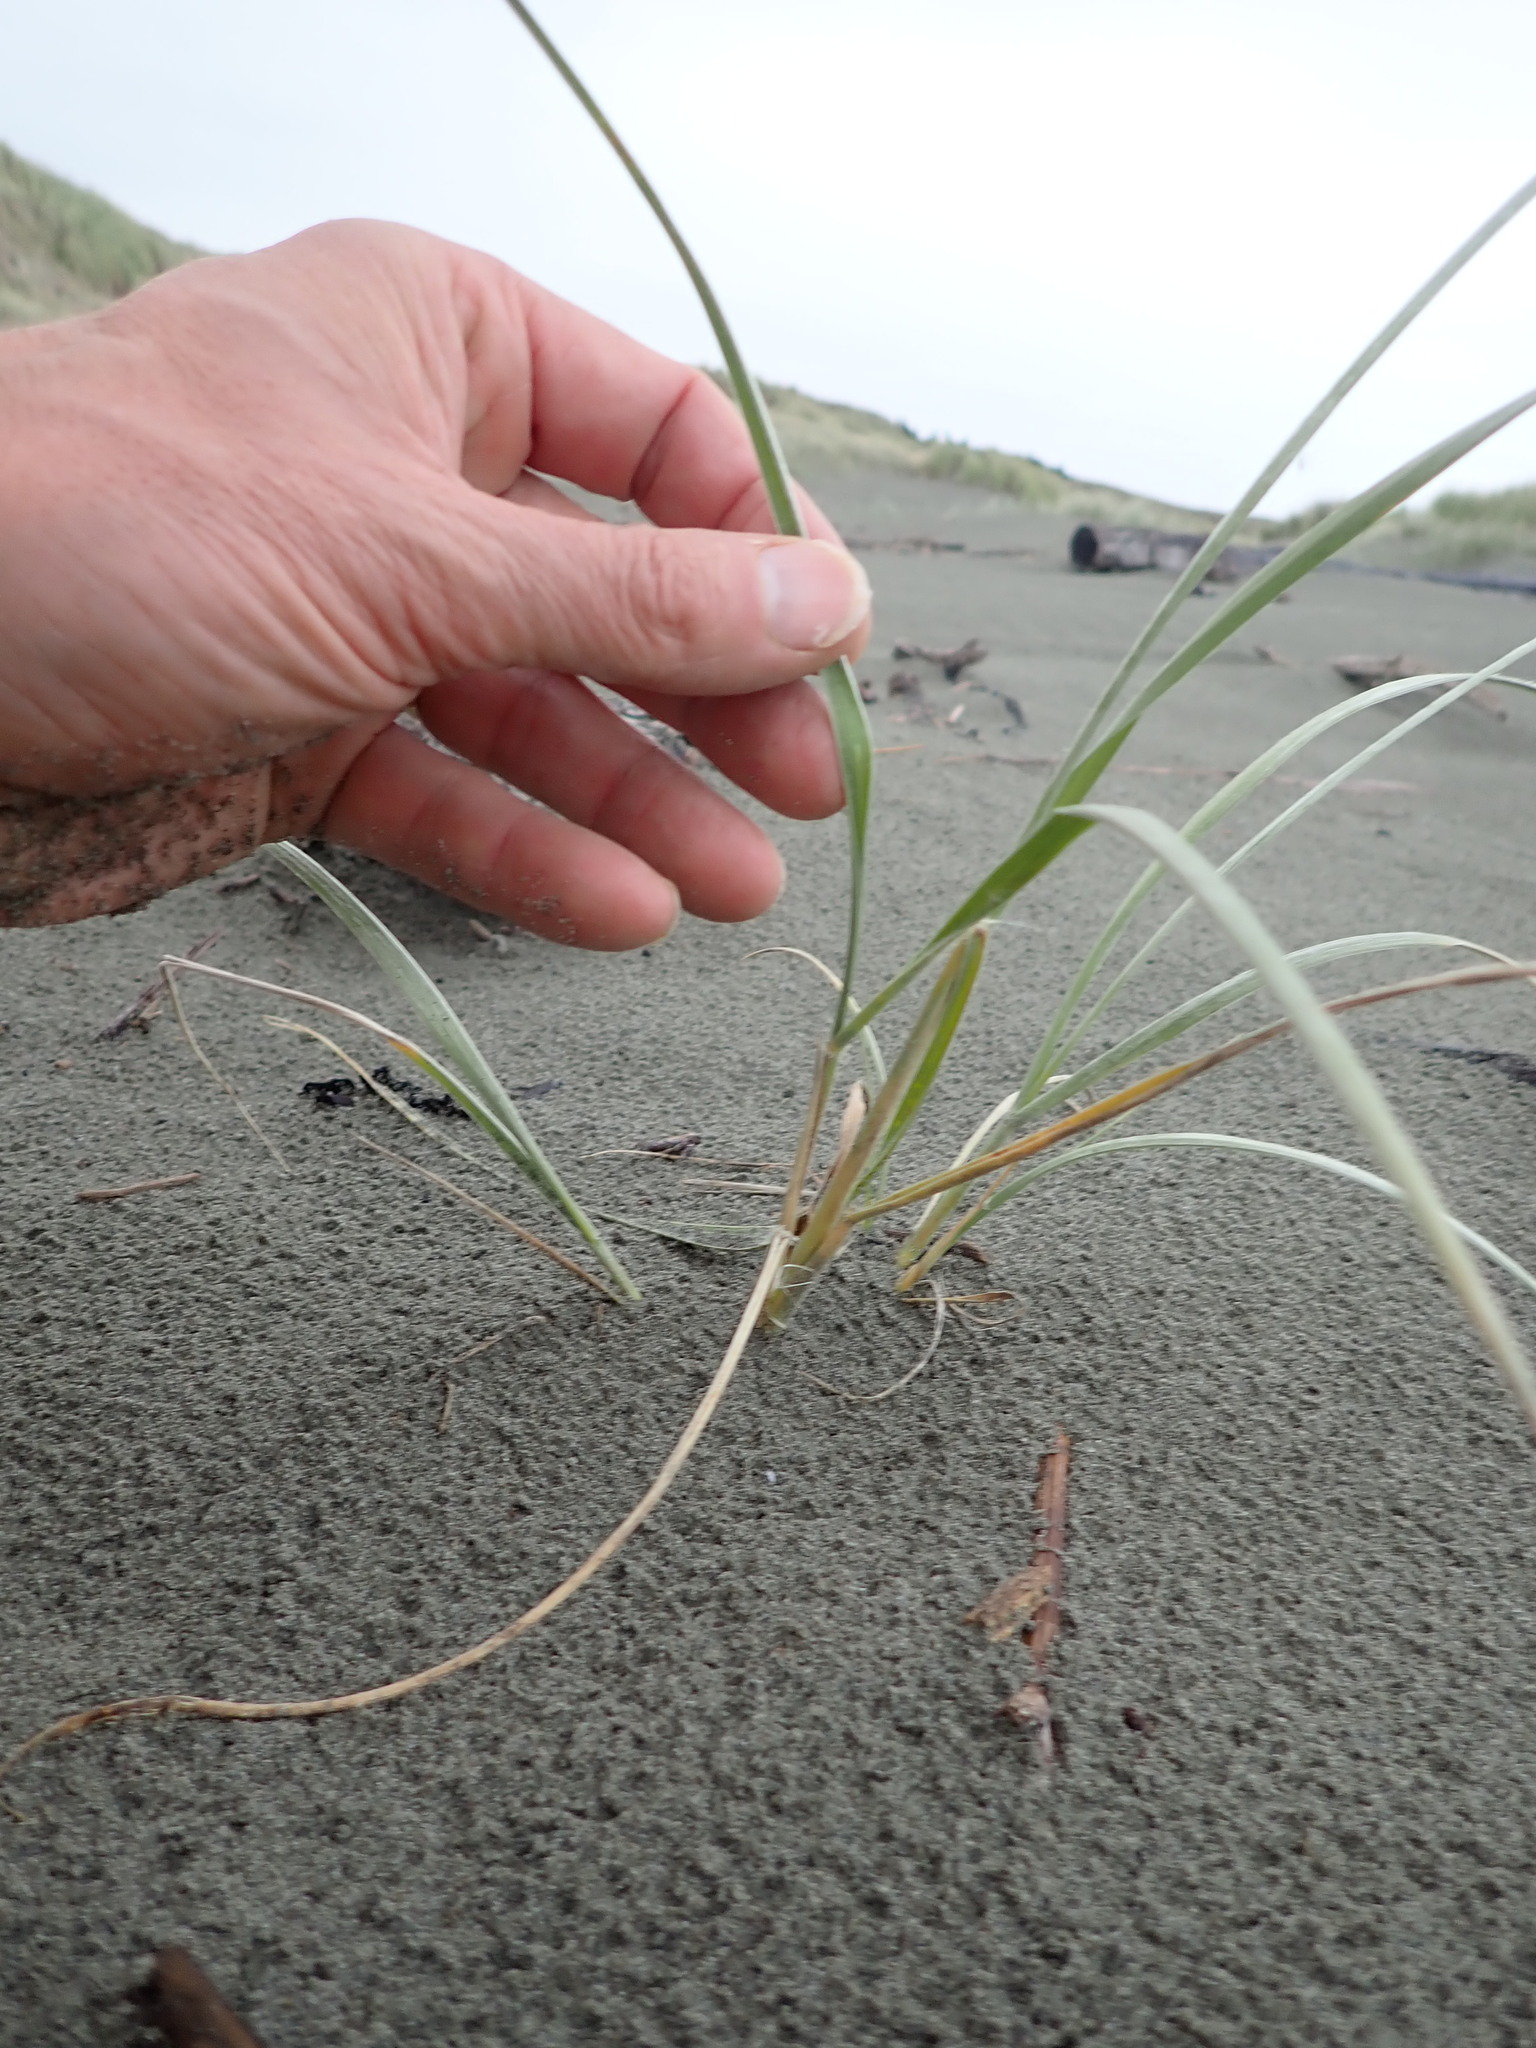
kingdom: Plantae
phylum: Tracheophyta
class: Liliopsida
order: Poales
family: Poaceae
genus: Spinifex
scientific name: Spinifex sericeus
